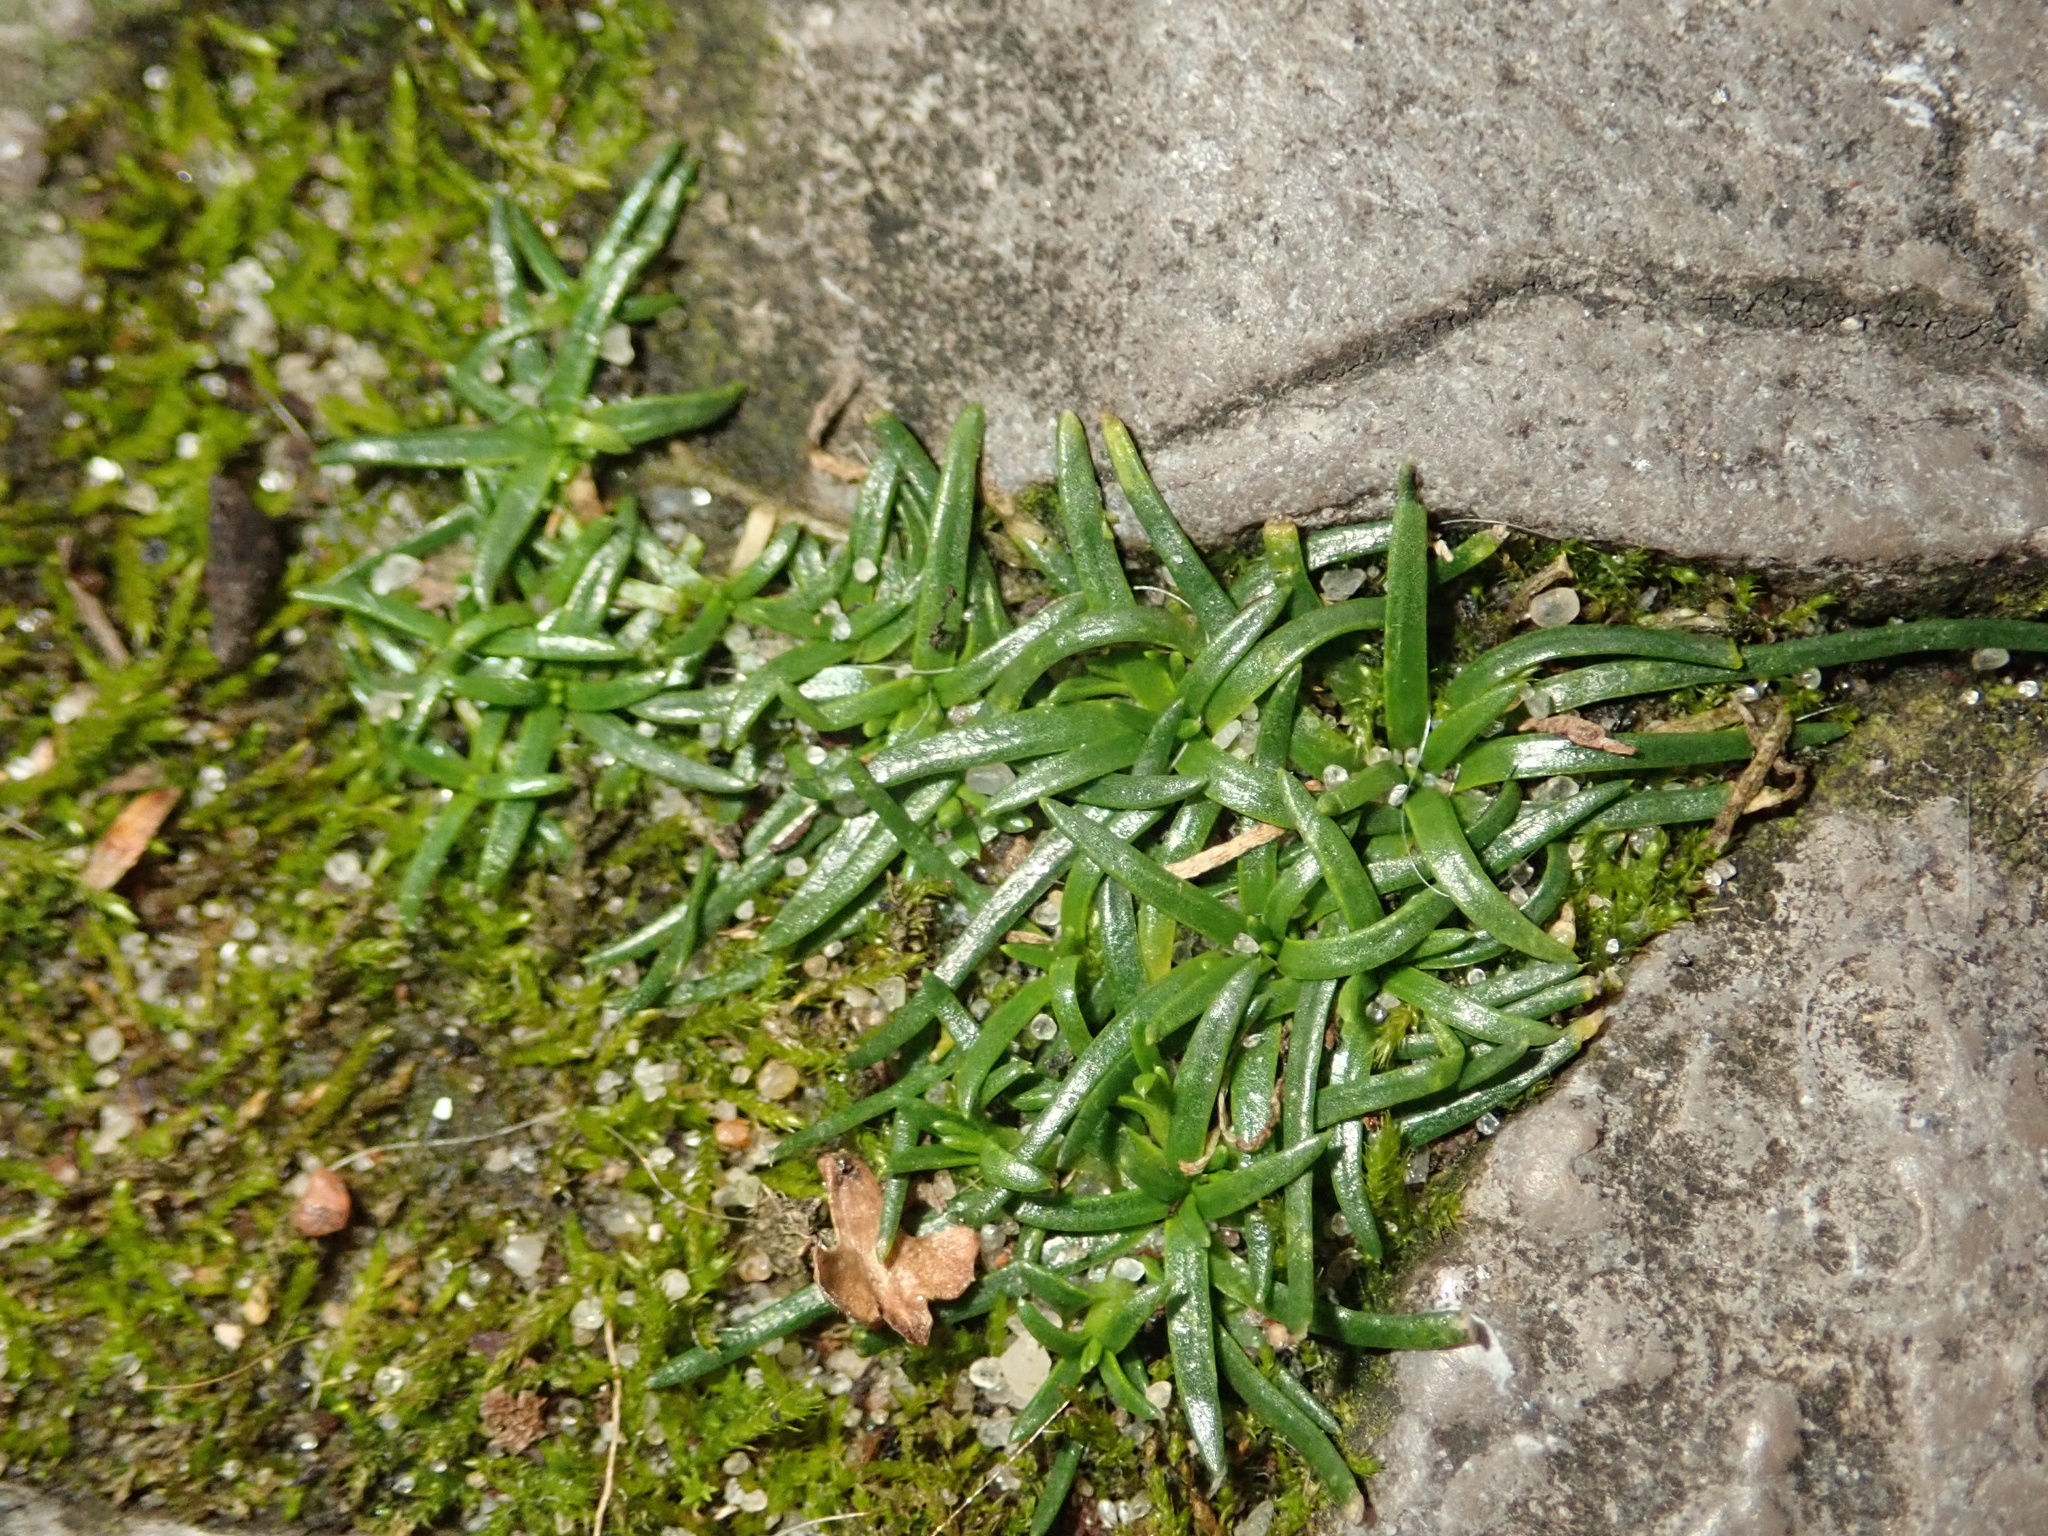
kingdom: Plantae
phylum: Tracheophyta
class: Magnoliopsida
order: Caryophyllales
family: Caryophyllaceae
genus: Sagina
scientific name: Sagina procumbens
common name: Procumbent pearlwort
